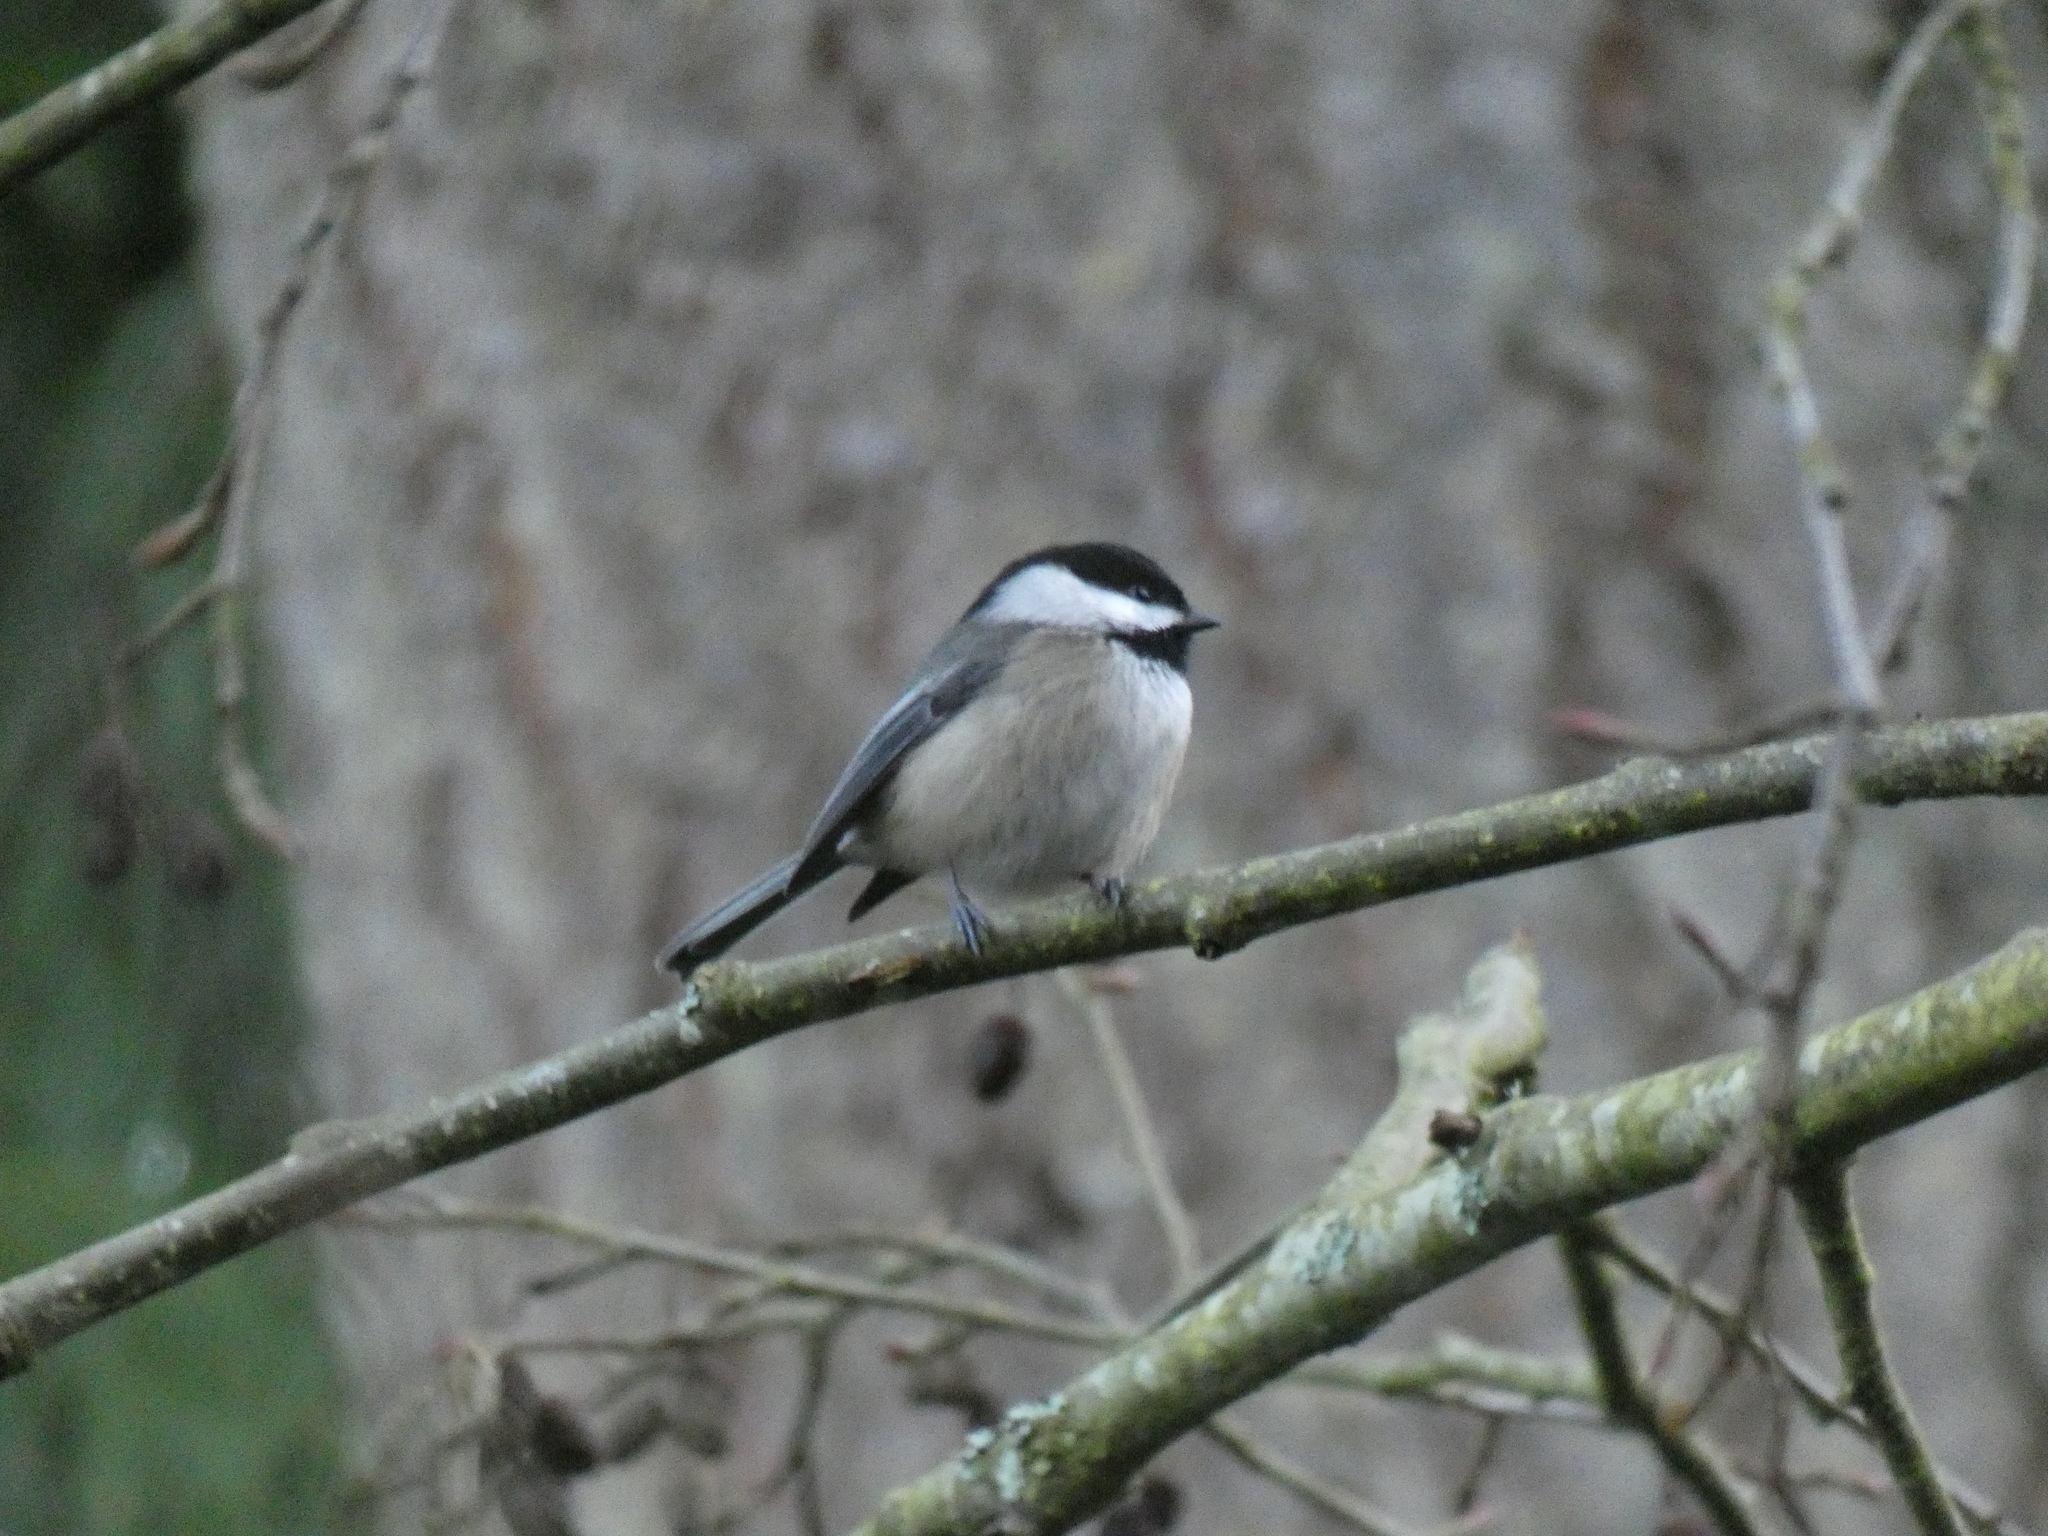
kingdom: Animalia
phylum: Chordata
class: Aves
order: Passeriformes
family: Paridae
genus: Poecile
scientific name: Poecile atricapillus
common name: Black-capped chickadee
